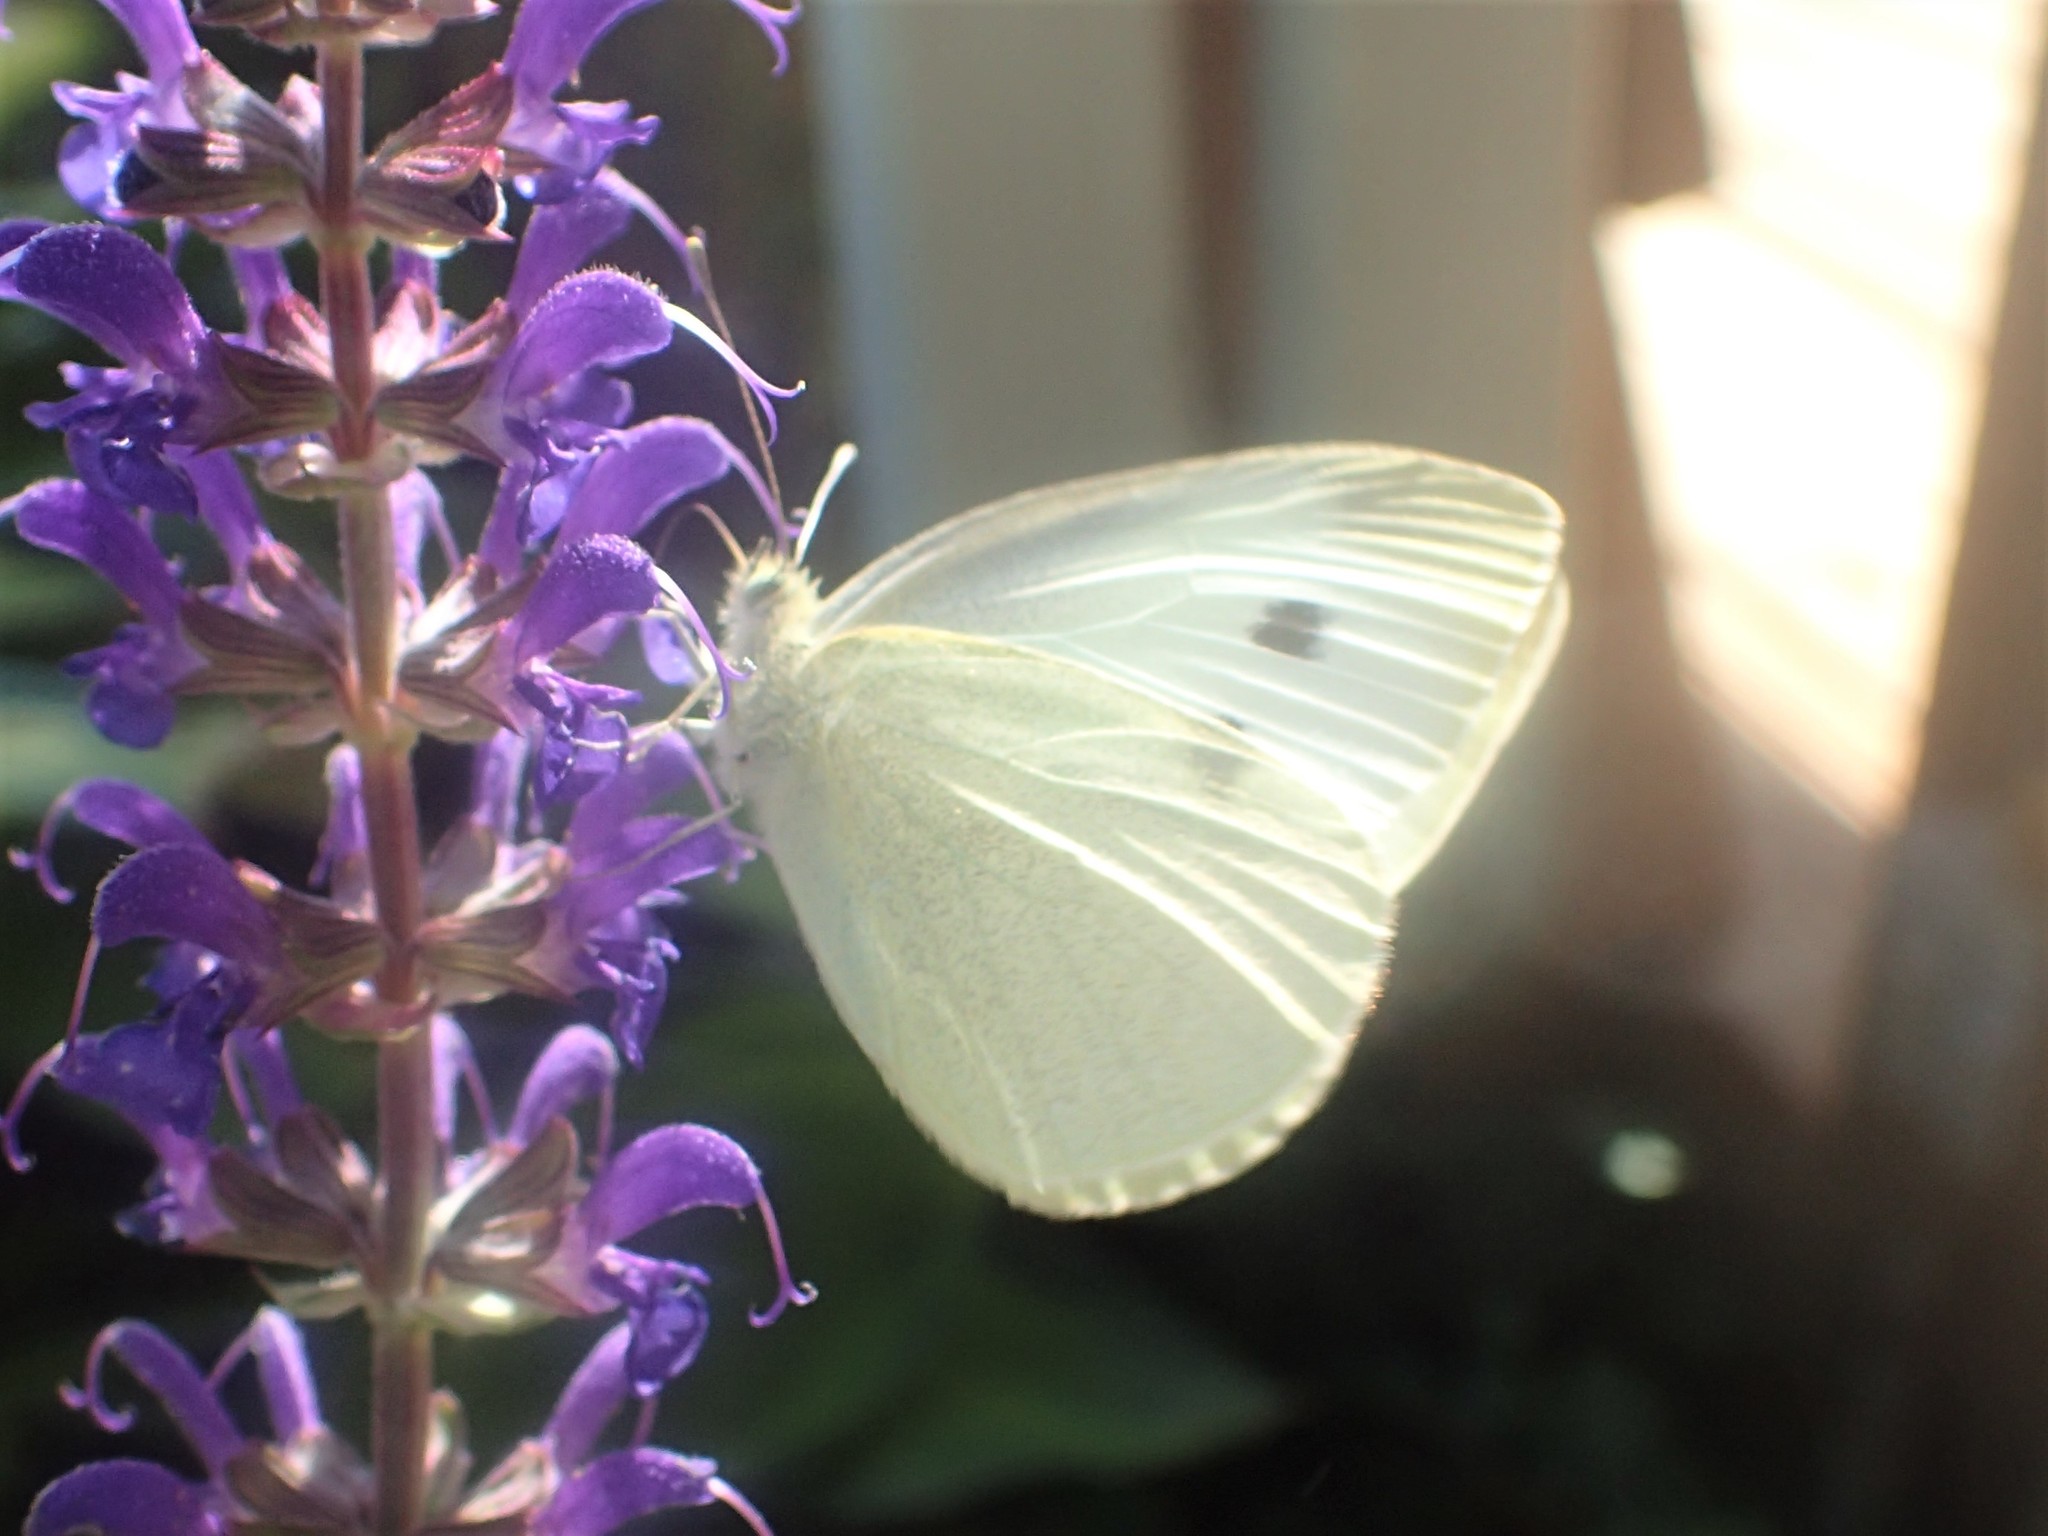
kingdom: Animalia
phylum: Arthropoda
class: Insecta
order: Lepidoptera
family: Pieridae
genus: Pieris
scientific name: Pieris rapae
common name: Small white
